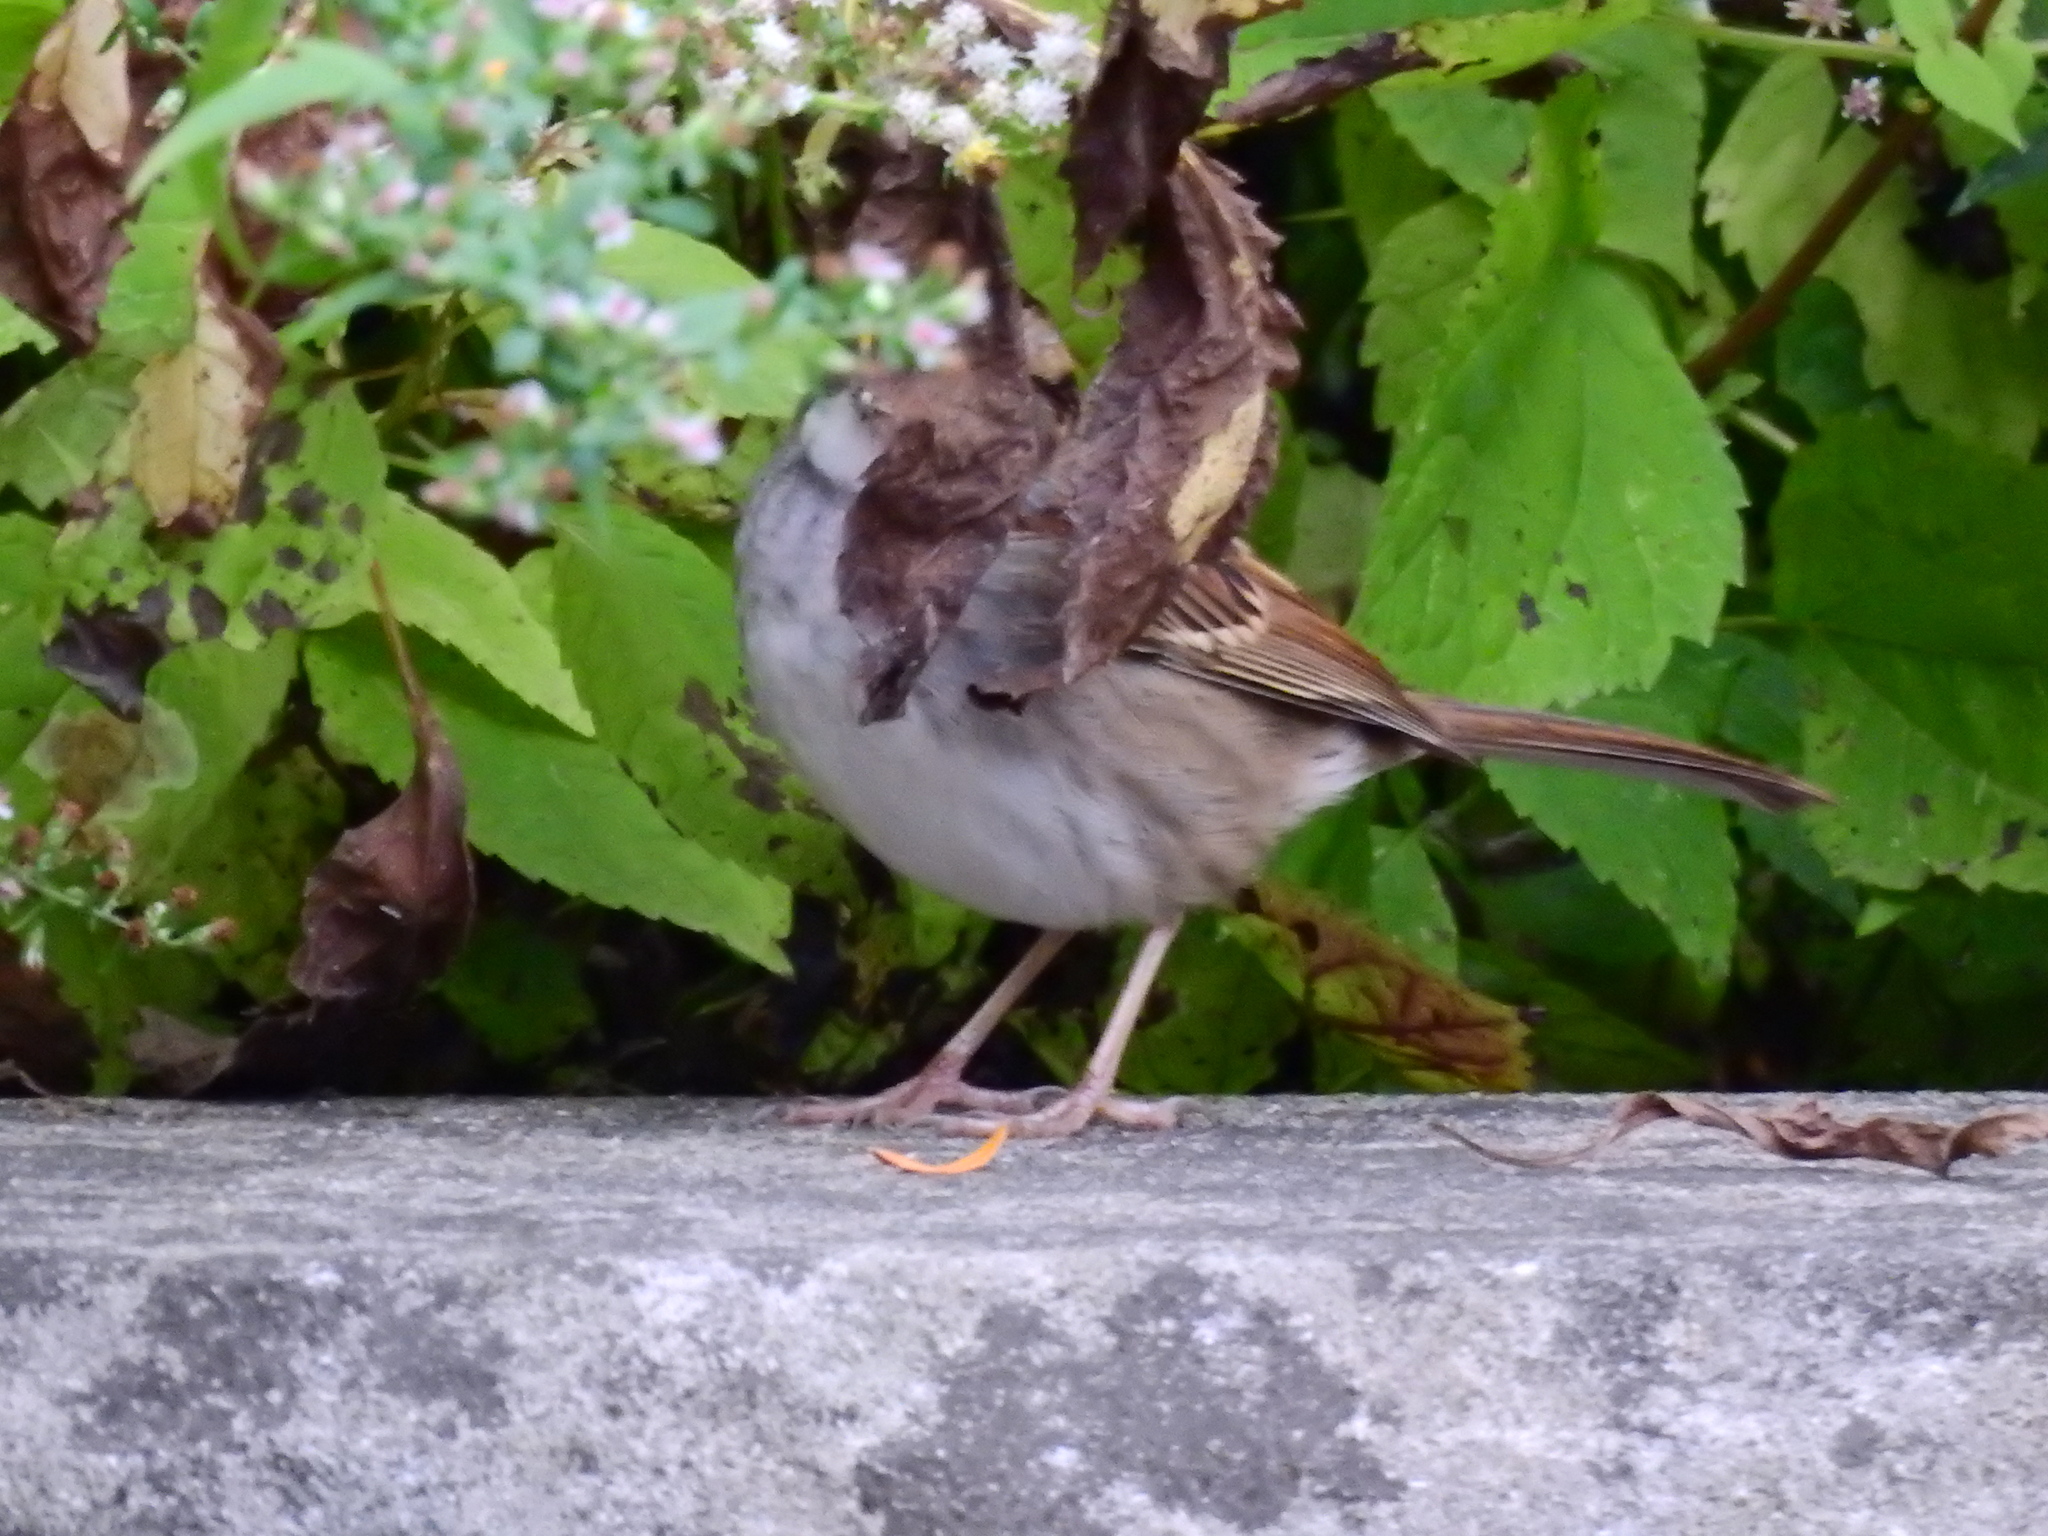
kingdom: Animalia
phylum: Chordata
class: Aves
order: Passeriformes
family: Passerellidae
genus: Zonotrichia
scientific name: Zonotrichia albicollis
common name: White-throated sparrow
